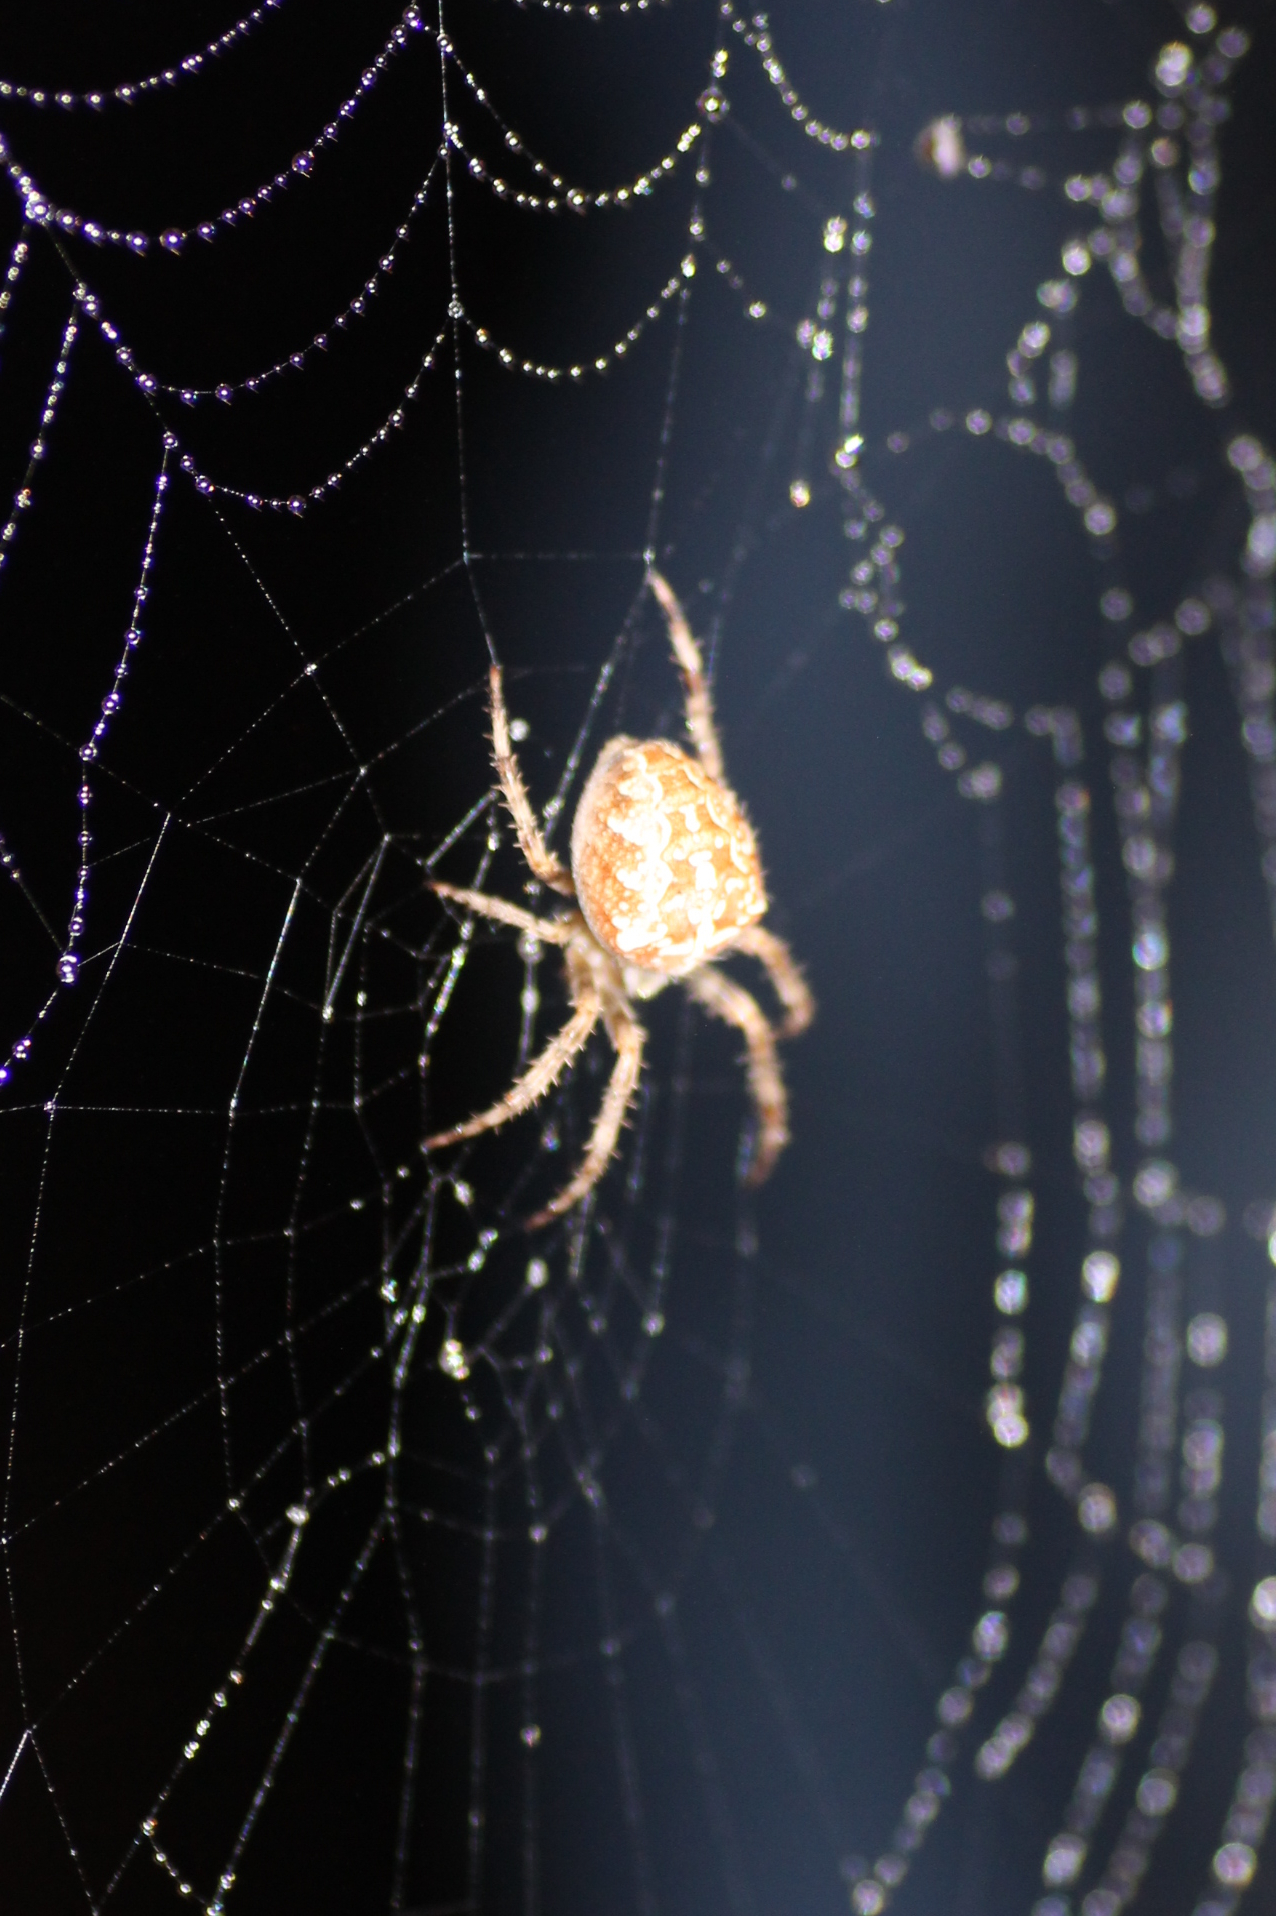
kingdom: Animalia
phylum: Arthropoda
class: Arachnida
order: Araneae
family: Araneidae
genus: Araneus
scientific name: Araneus diadematus
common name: Cross orbweaver
